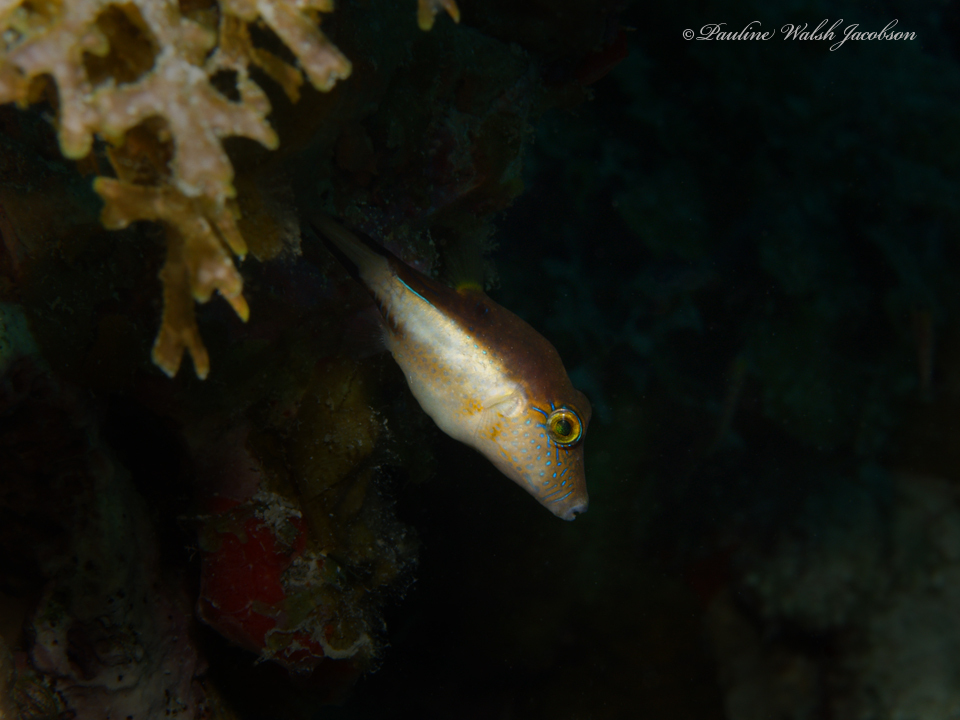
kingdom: Animalia
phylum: Chordata
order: Tetraodontiformes
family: Tetraodontidae
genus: Canthigaster
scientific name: Canthigaster rostrata
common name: Caribbean sharpnose-puffer
